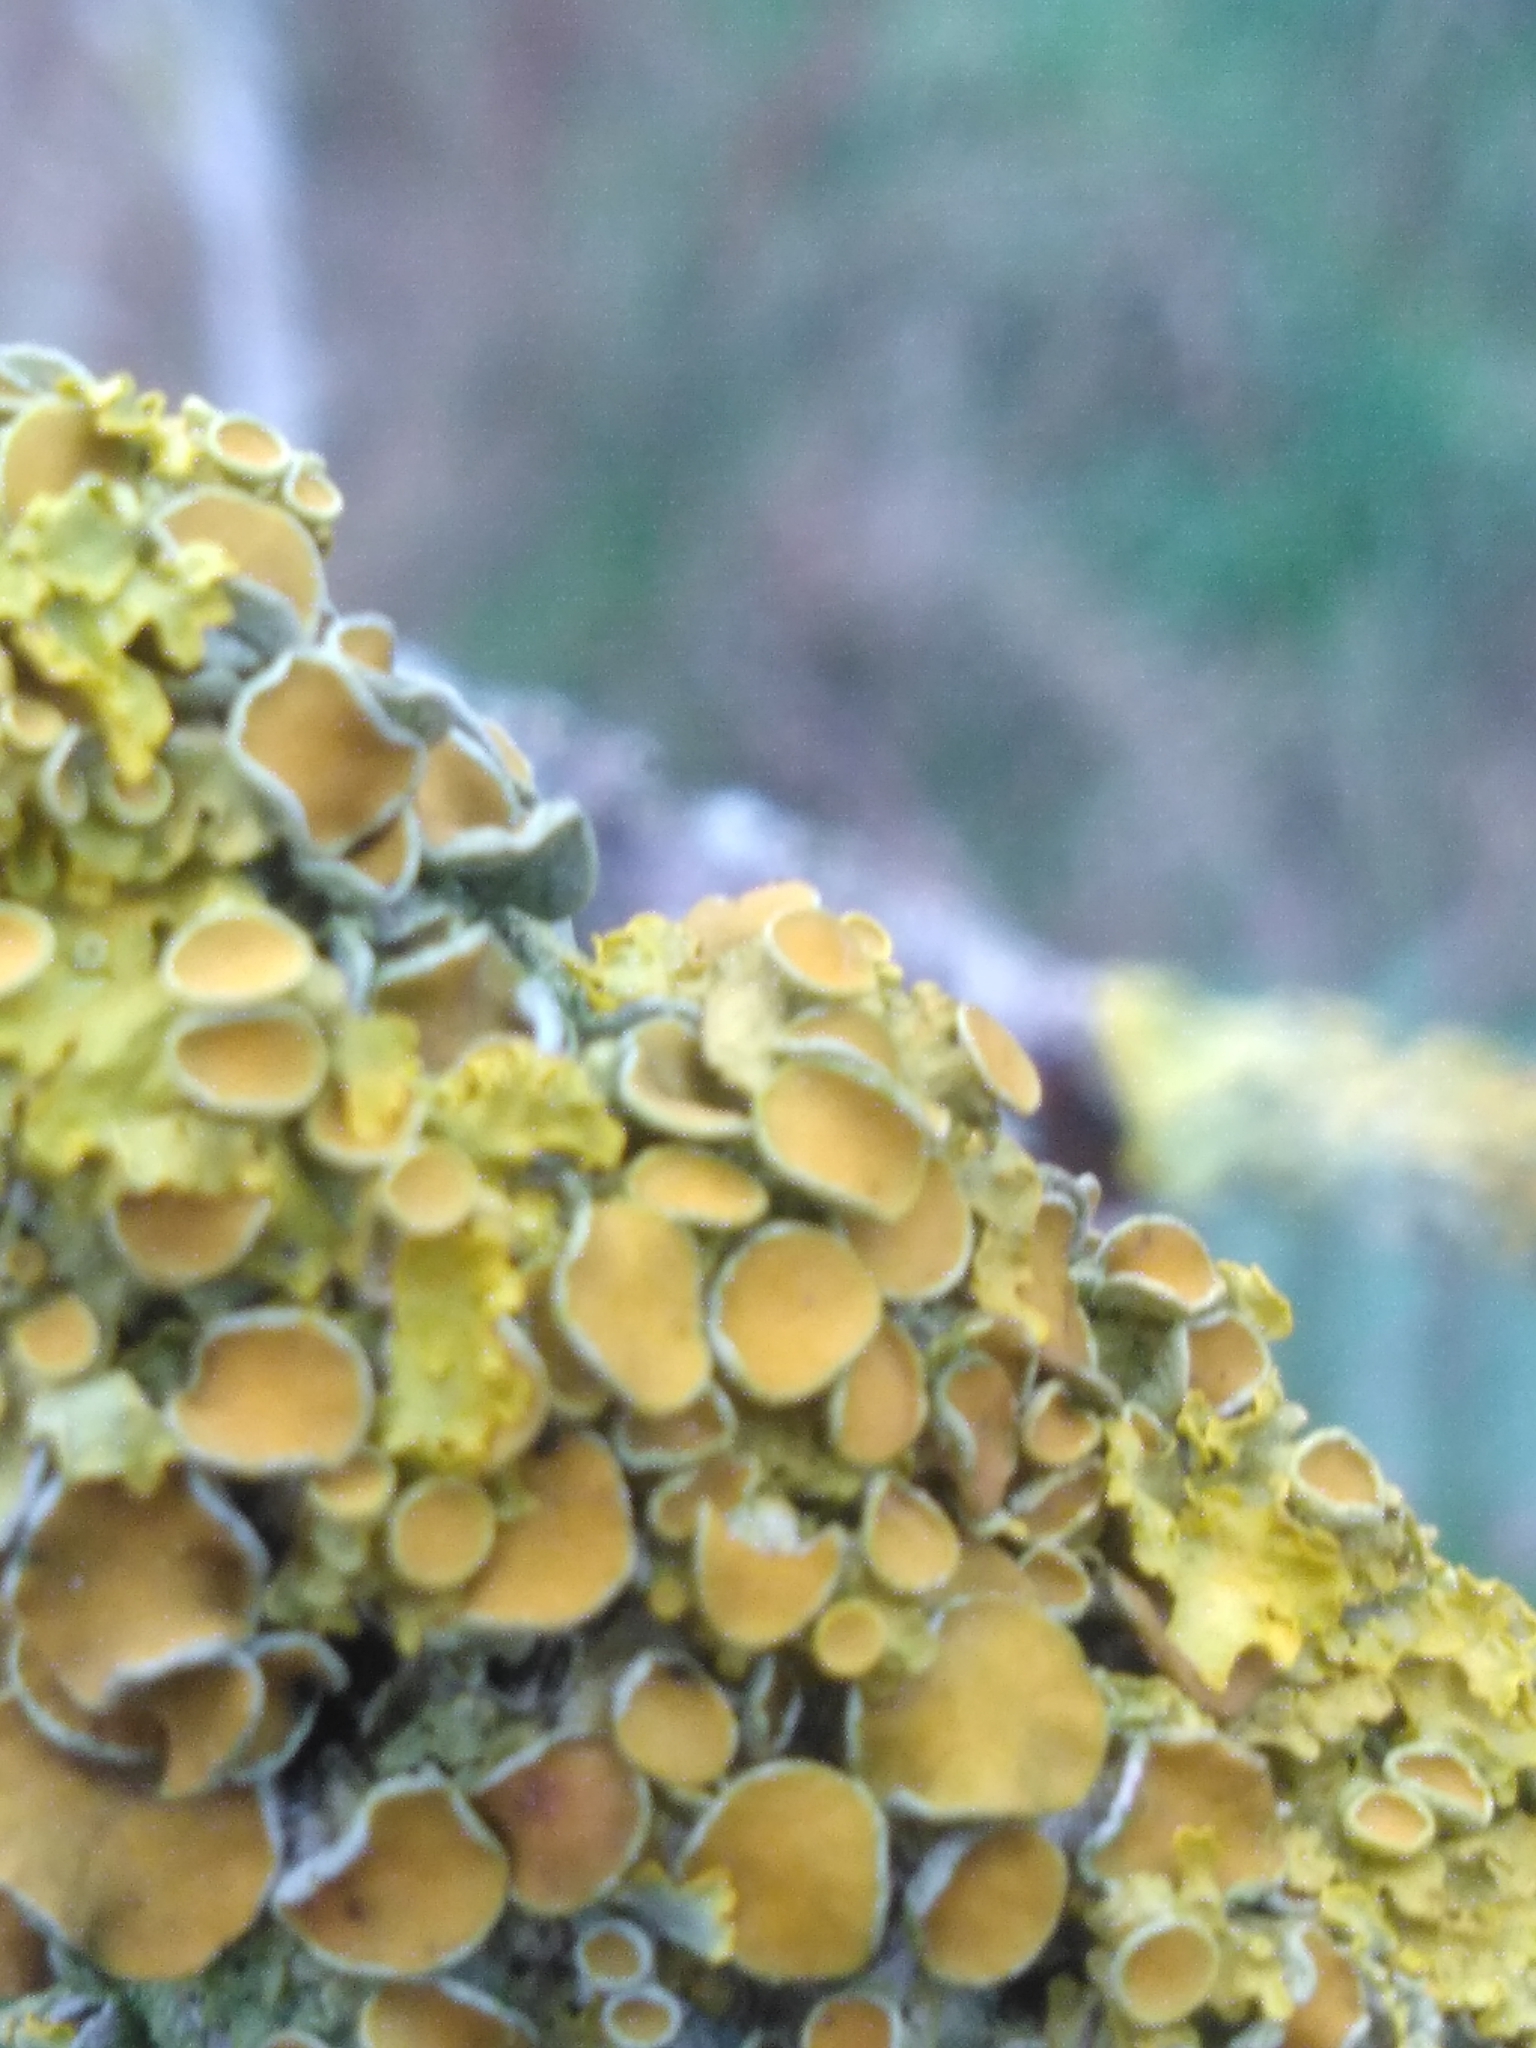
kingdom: Fungi
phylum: Ascomycota
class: Lecanoromycetes
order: Teloschistales
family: Teloschistaceae
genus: Xanthoria
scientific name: Xanthoria parietina
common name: Common orange lichen
